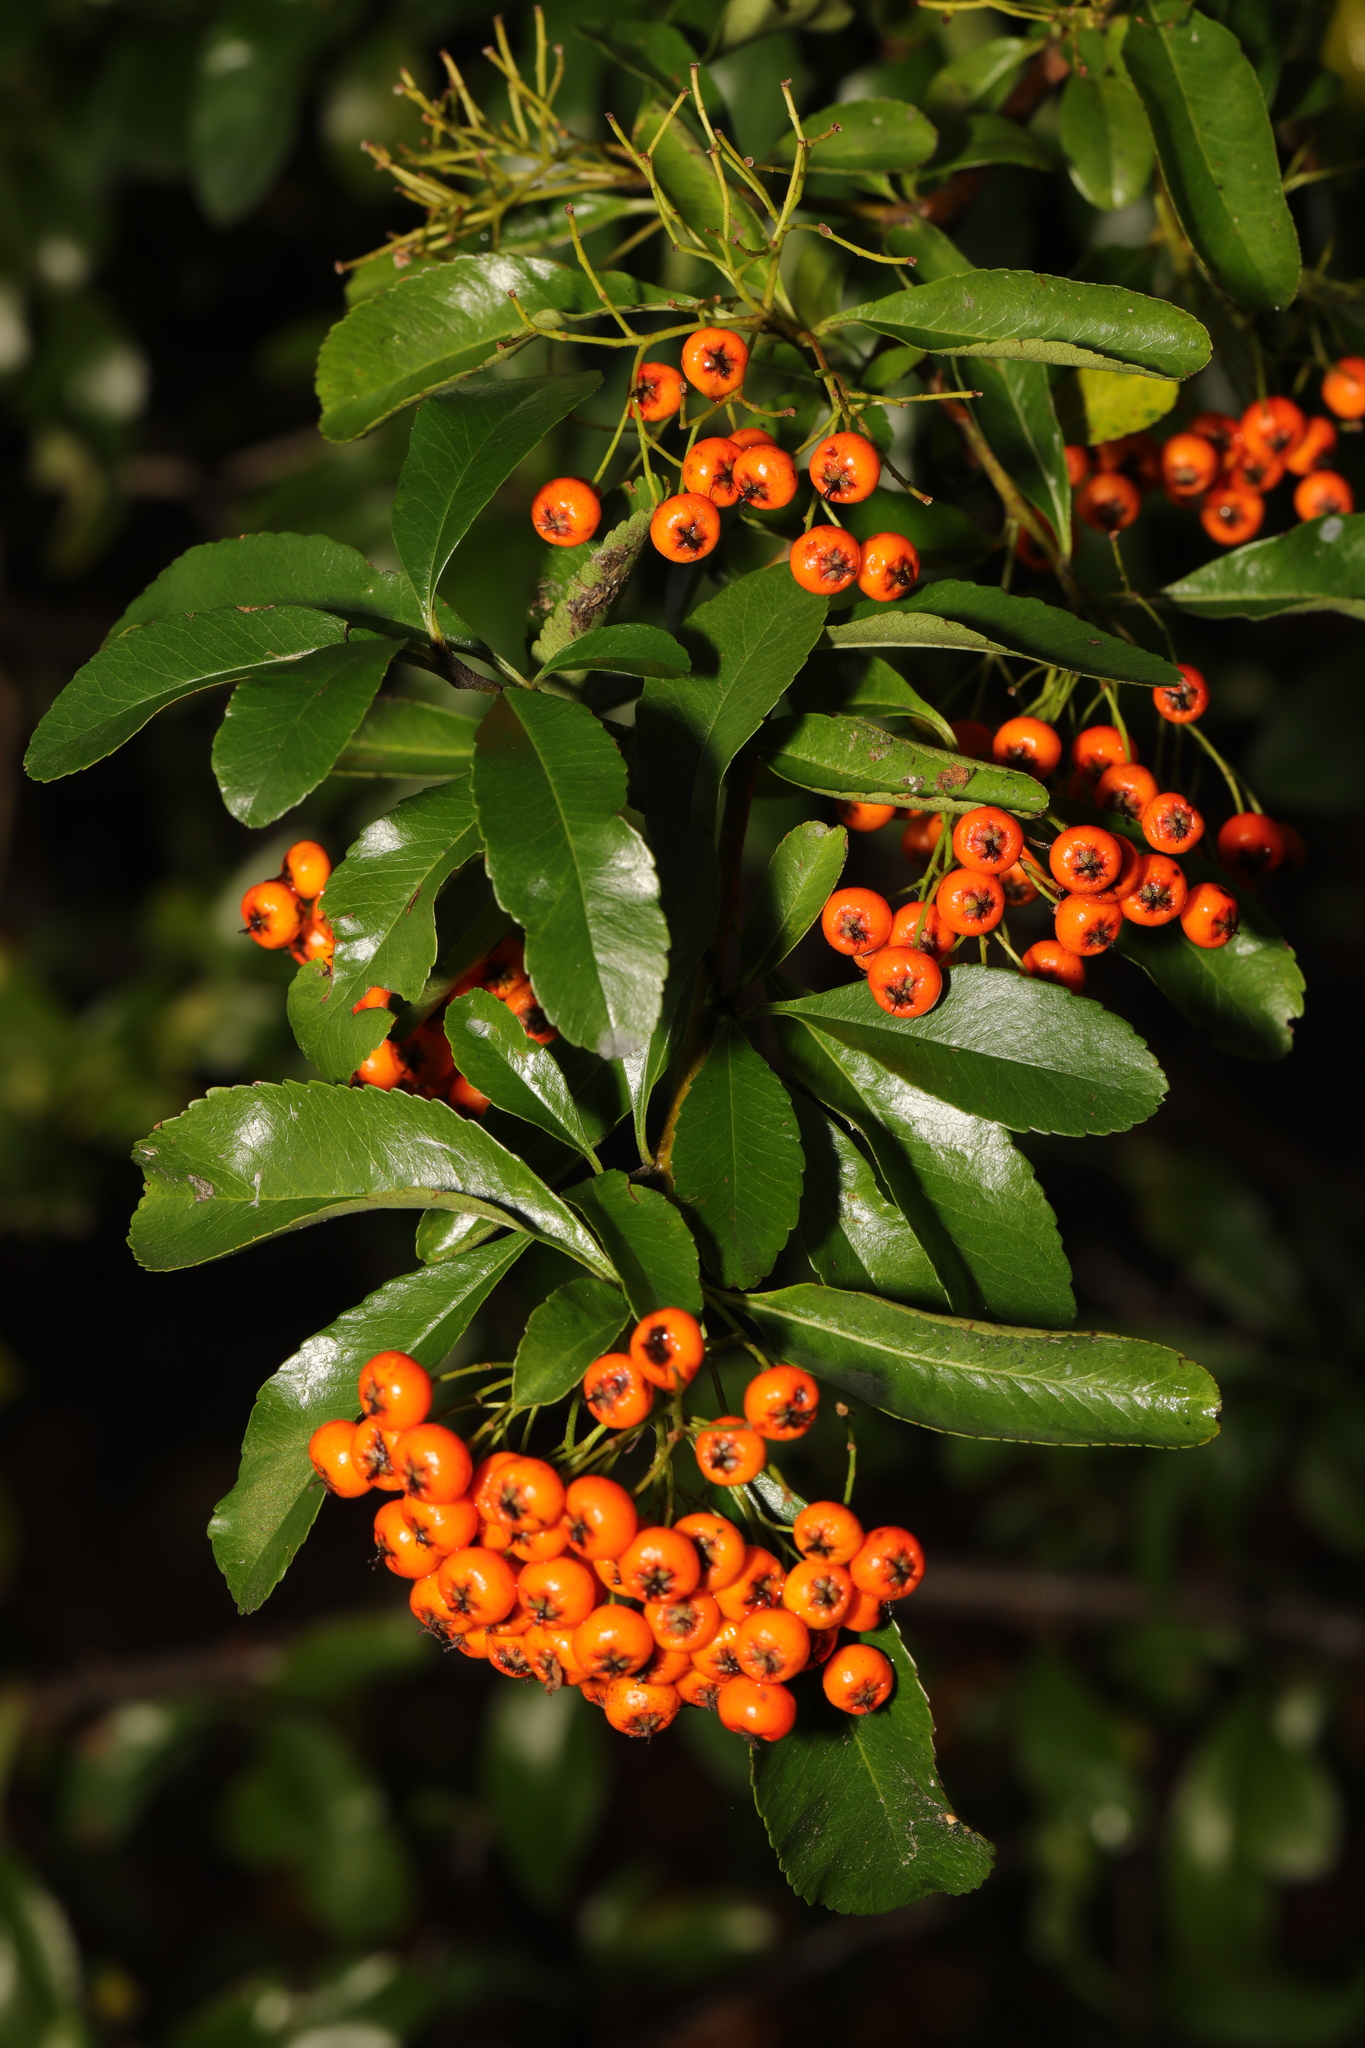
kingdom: Plantae
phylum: Tracheophyta
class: Magnoliopsida
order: Rosales
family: Rosaceae
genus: Pyracantha
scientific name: Pyracantha coccinea
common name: Firethorn
